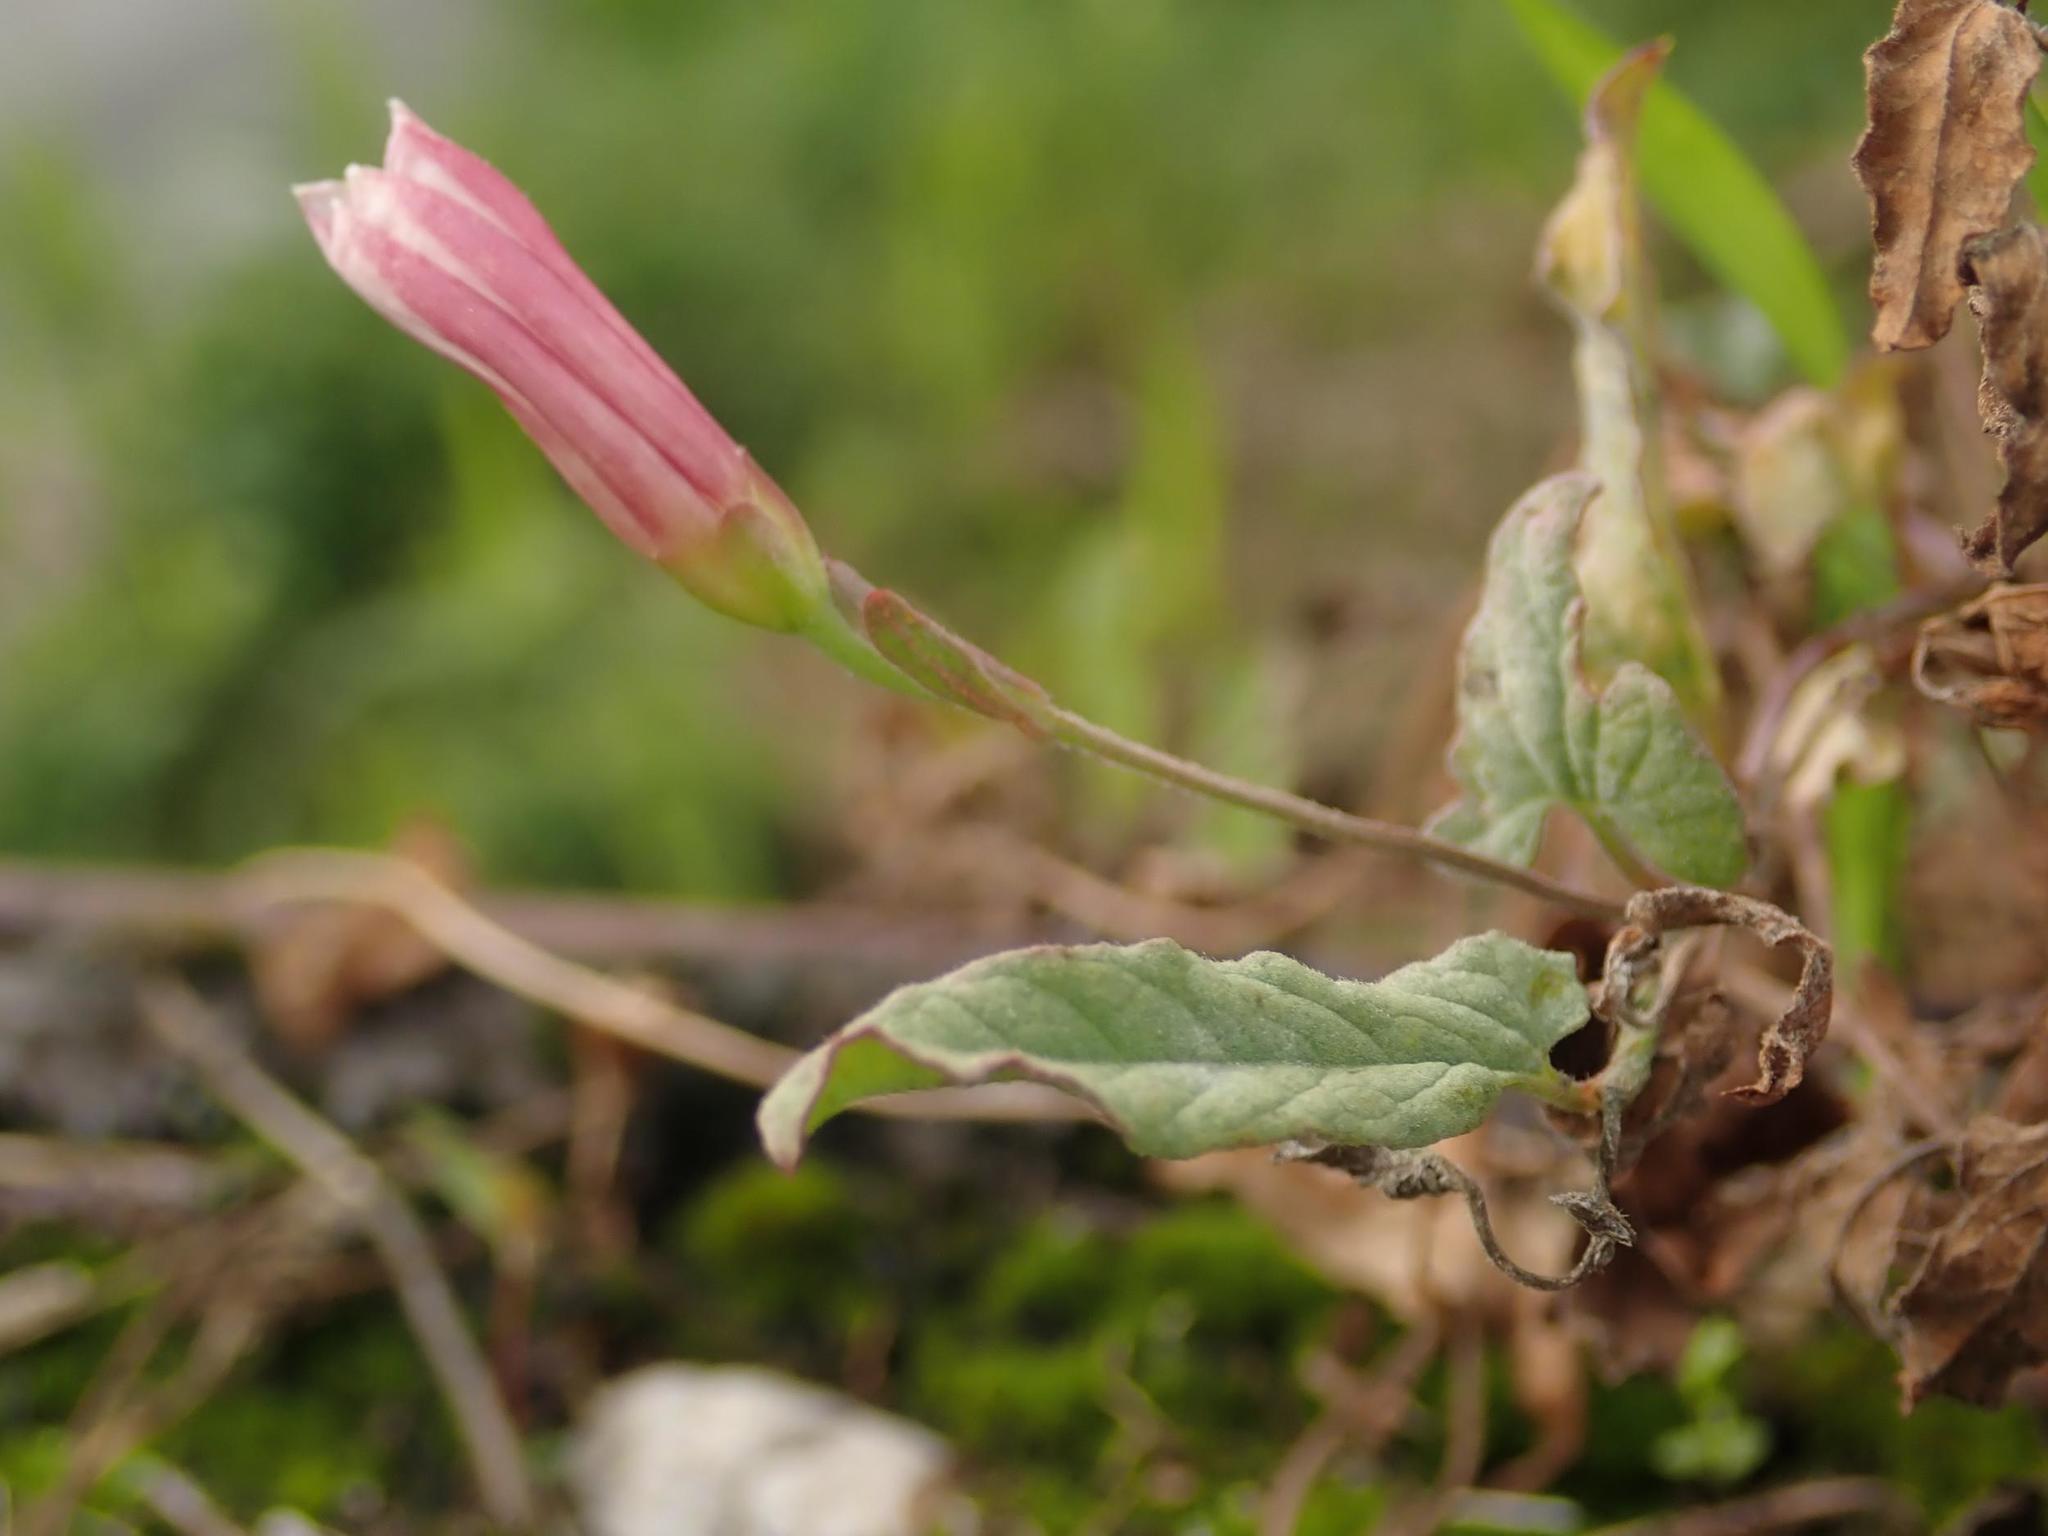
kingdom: Plantae
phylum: Tracheophyta
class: Magnoliopsida
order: Solanales
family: Convolvulaceae
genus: Convolvulus
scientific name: Convolvulus arvensis
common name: Field bindweed
